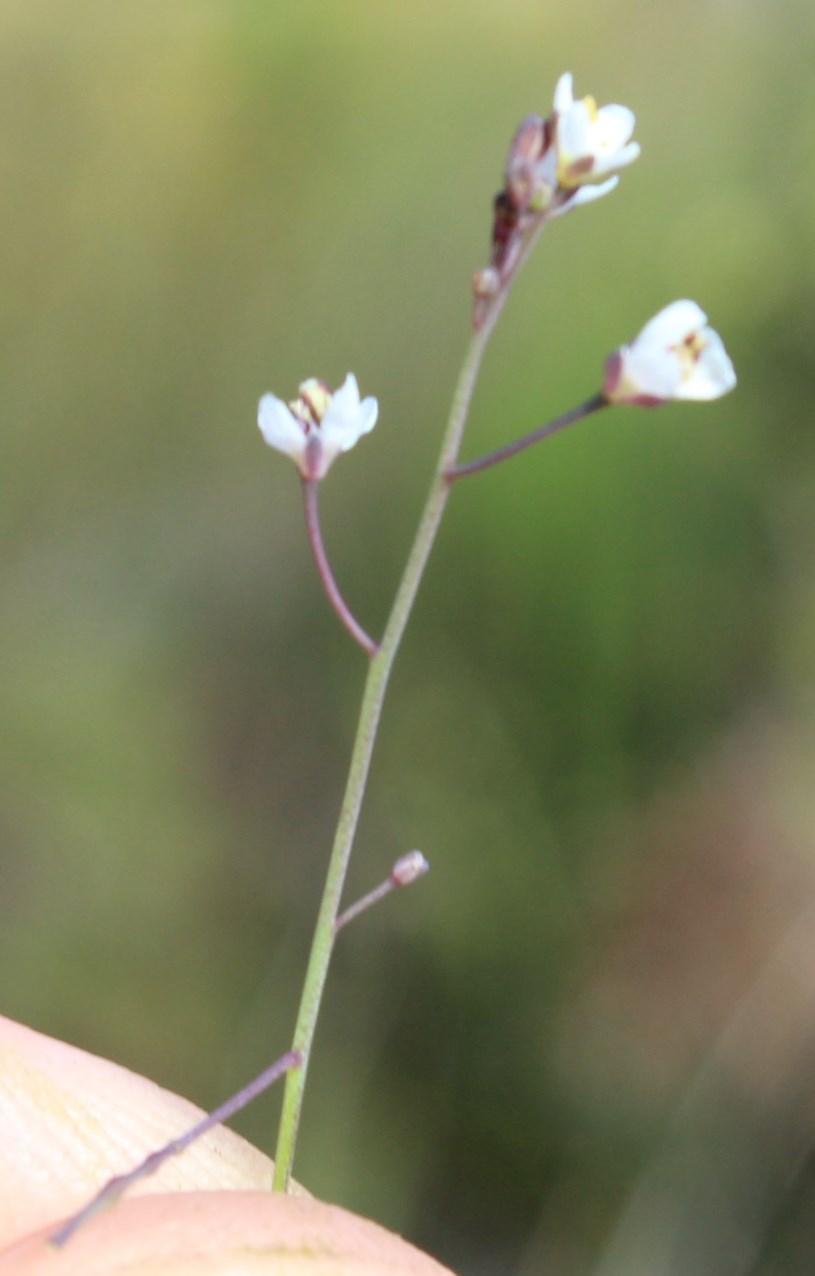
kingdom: Plantae
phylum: Tracheophyta
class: Magnoliopsida
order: Brassicales
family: Brassicaceae
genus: Heliophila
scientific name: Heliophila pusilla
